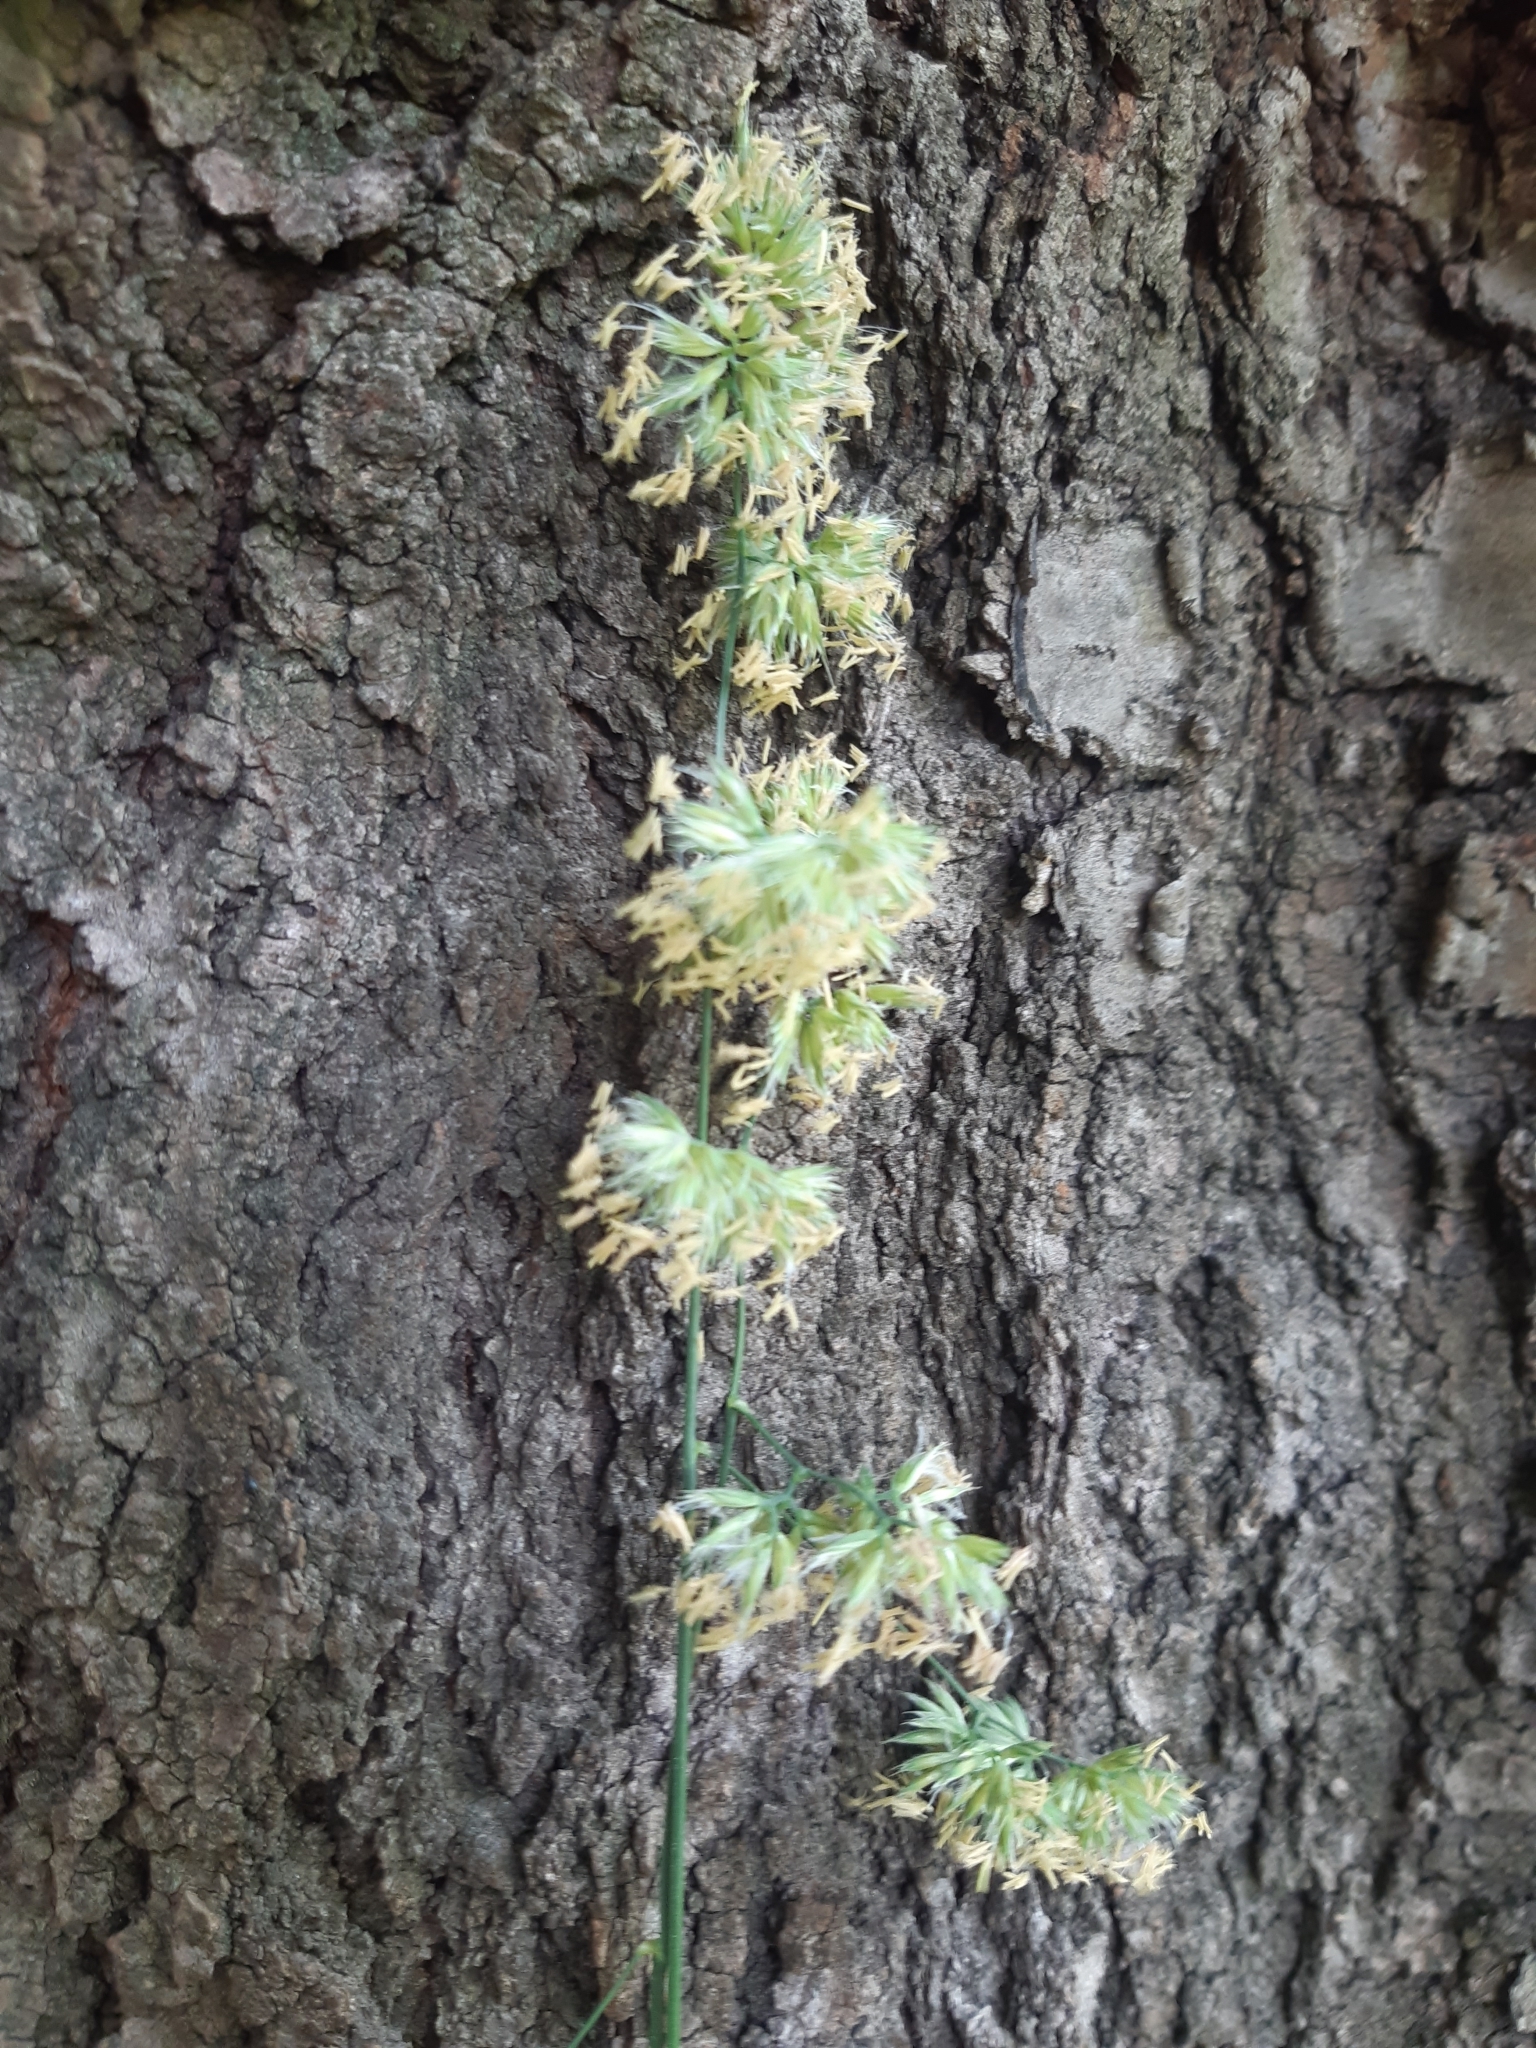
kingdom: Plantae
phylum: Tracheophyta
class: Liliopsida
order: Poales
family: Poaceae
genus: Dactylis
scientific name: Dactylis glomerata
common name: Orchardgrass
